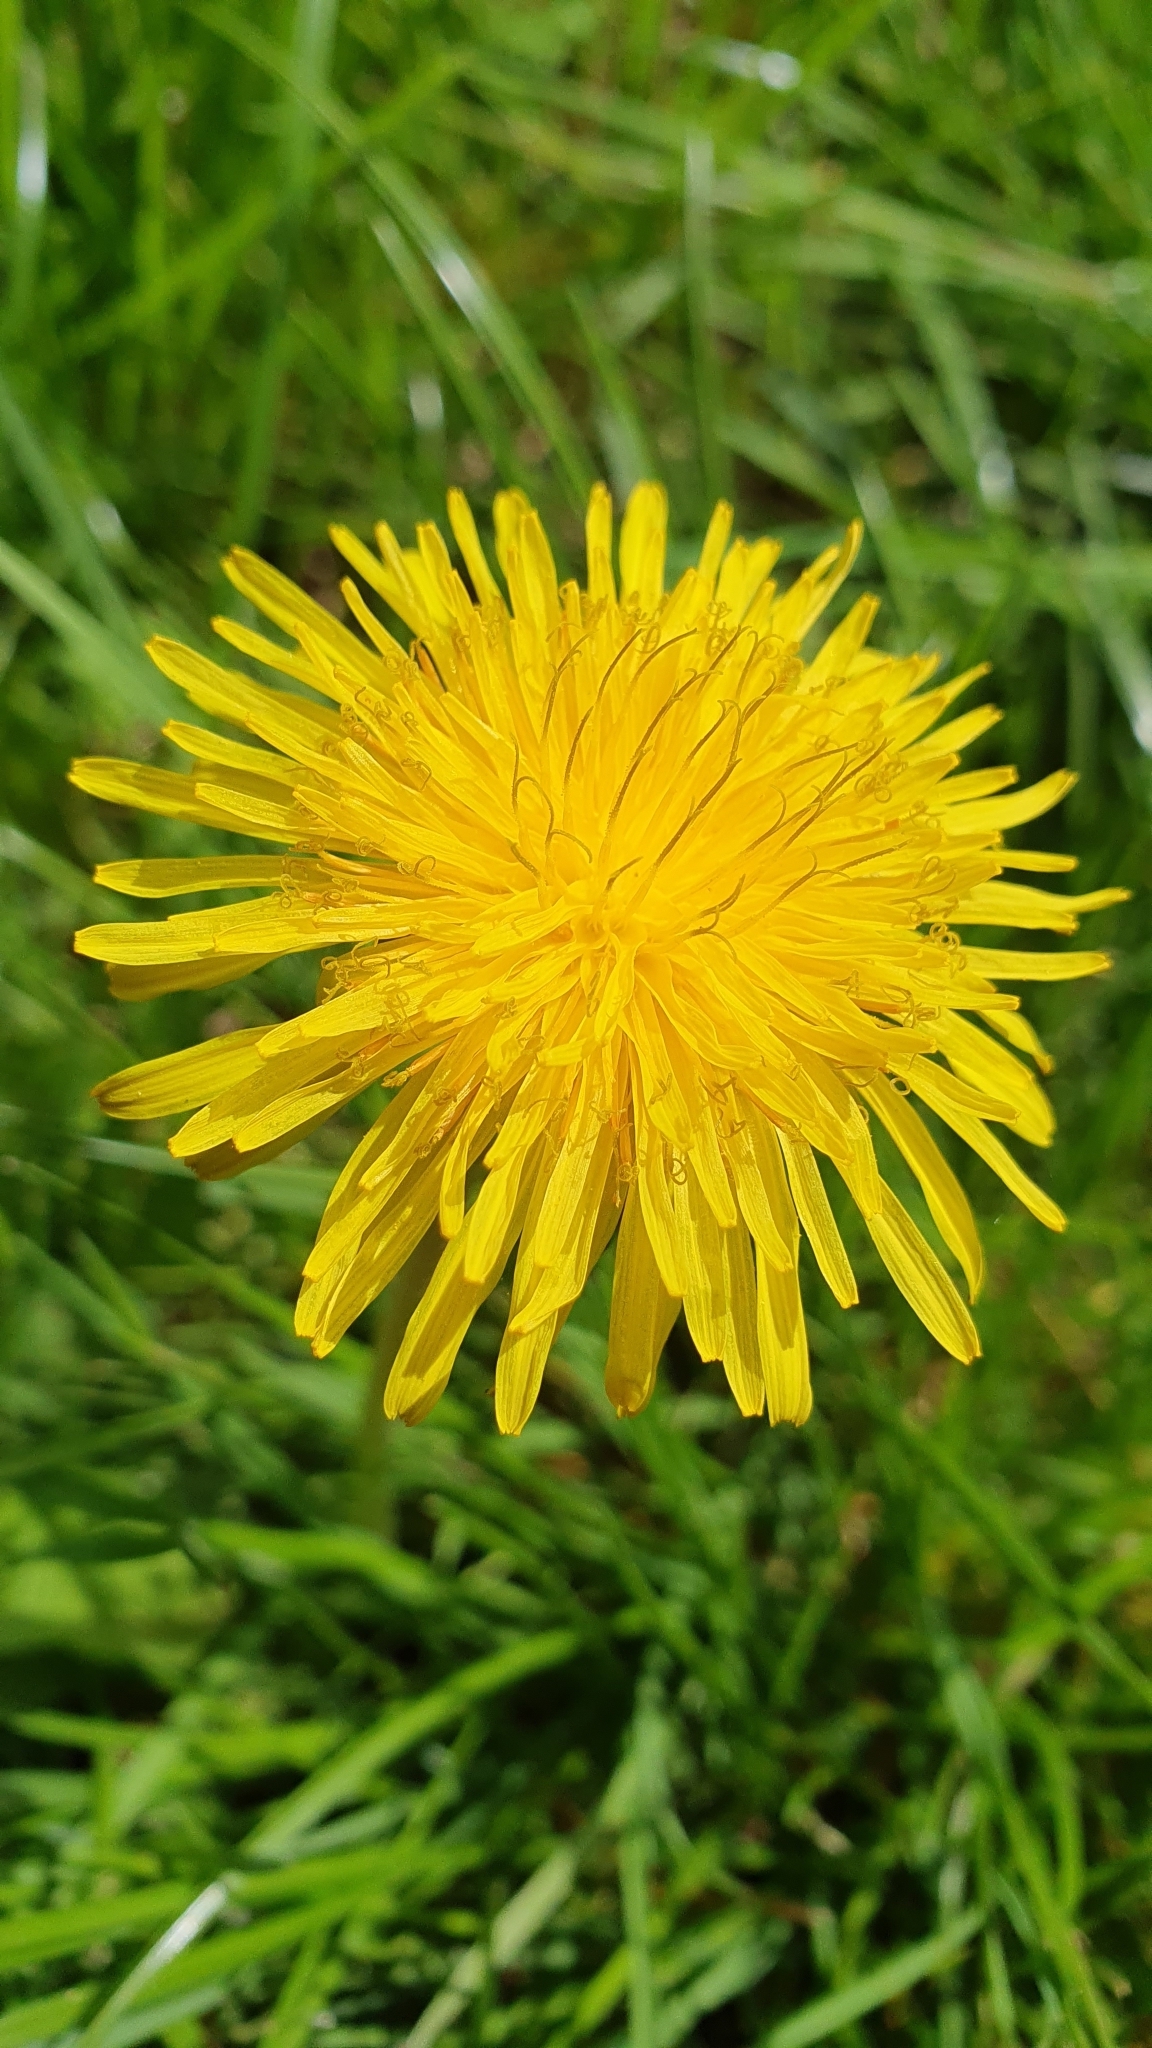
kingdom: Plantae
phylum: Tracheophyta
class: Magnoliopsida
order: Asterales
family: Asteraceae
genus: Taraxacum
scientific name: Taraxacum officinale
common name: Common dandelion
